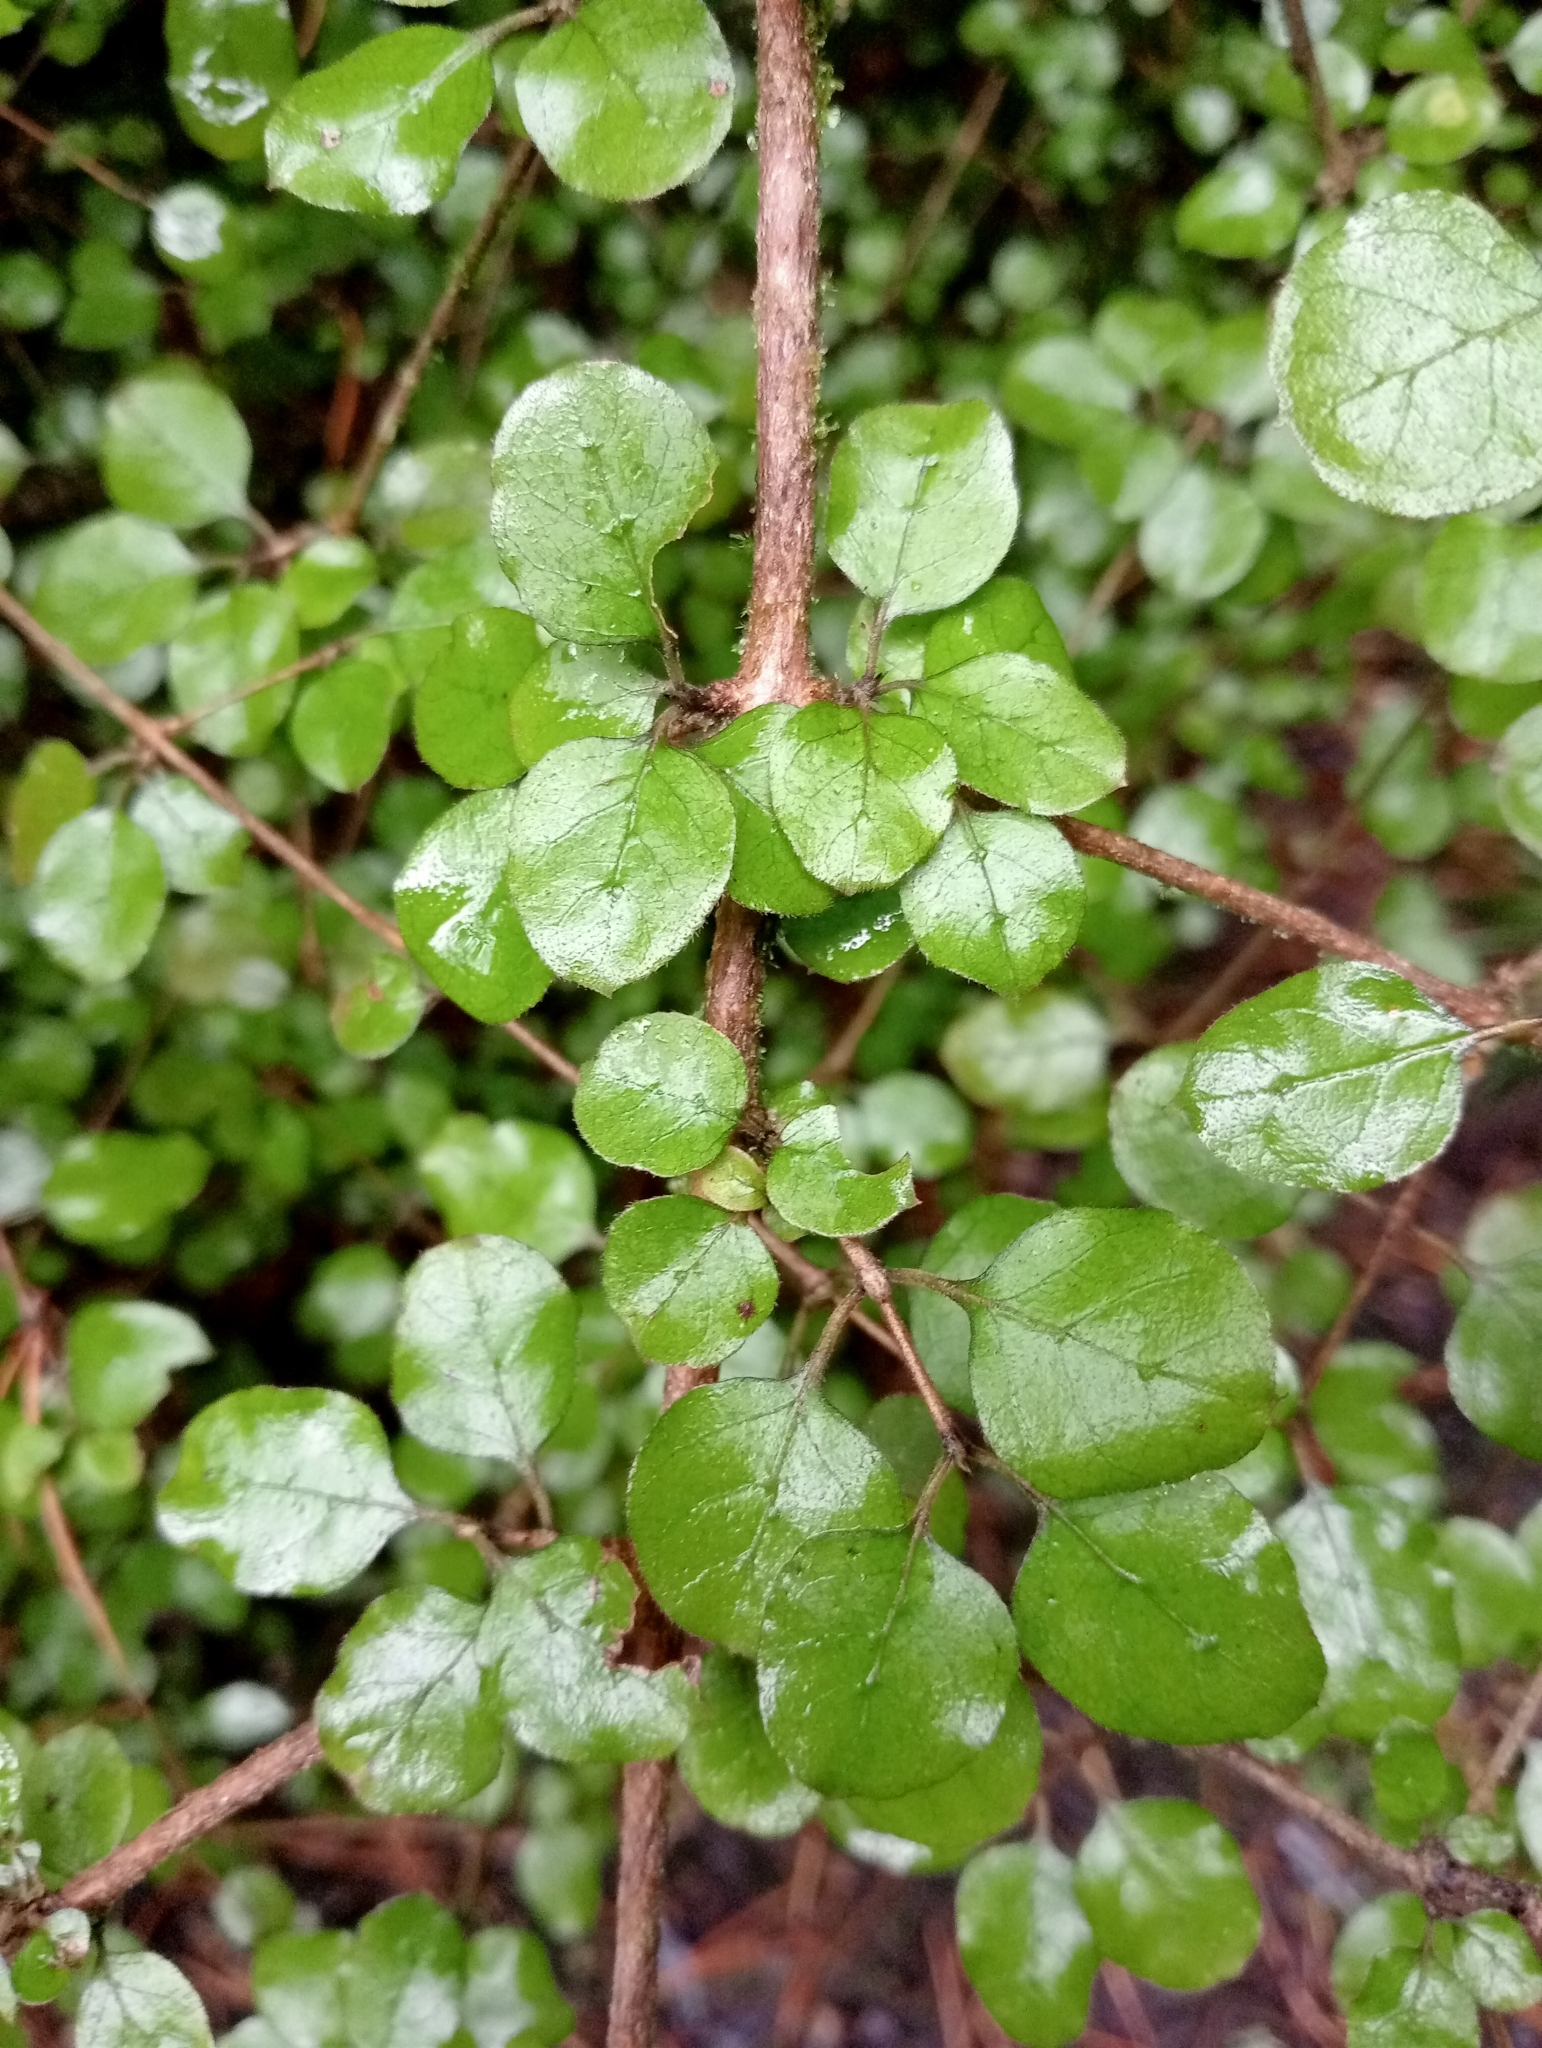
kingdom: Plantae
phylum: Tracheophyta
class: Magnoliopsida
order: Gentianales
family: Rubiaceae
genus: Coprosma
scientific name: Coprosma rotundifolia
